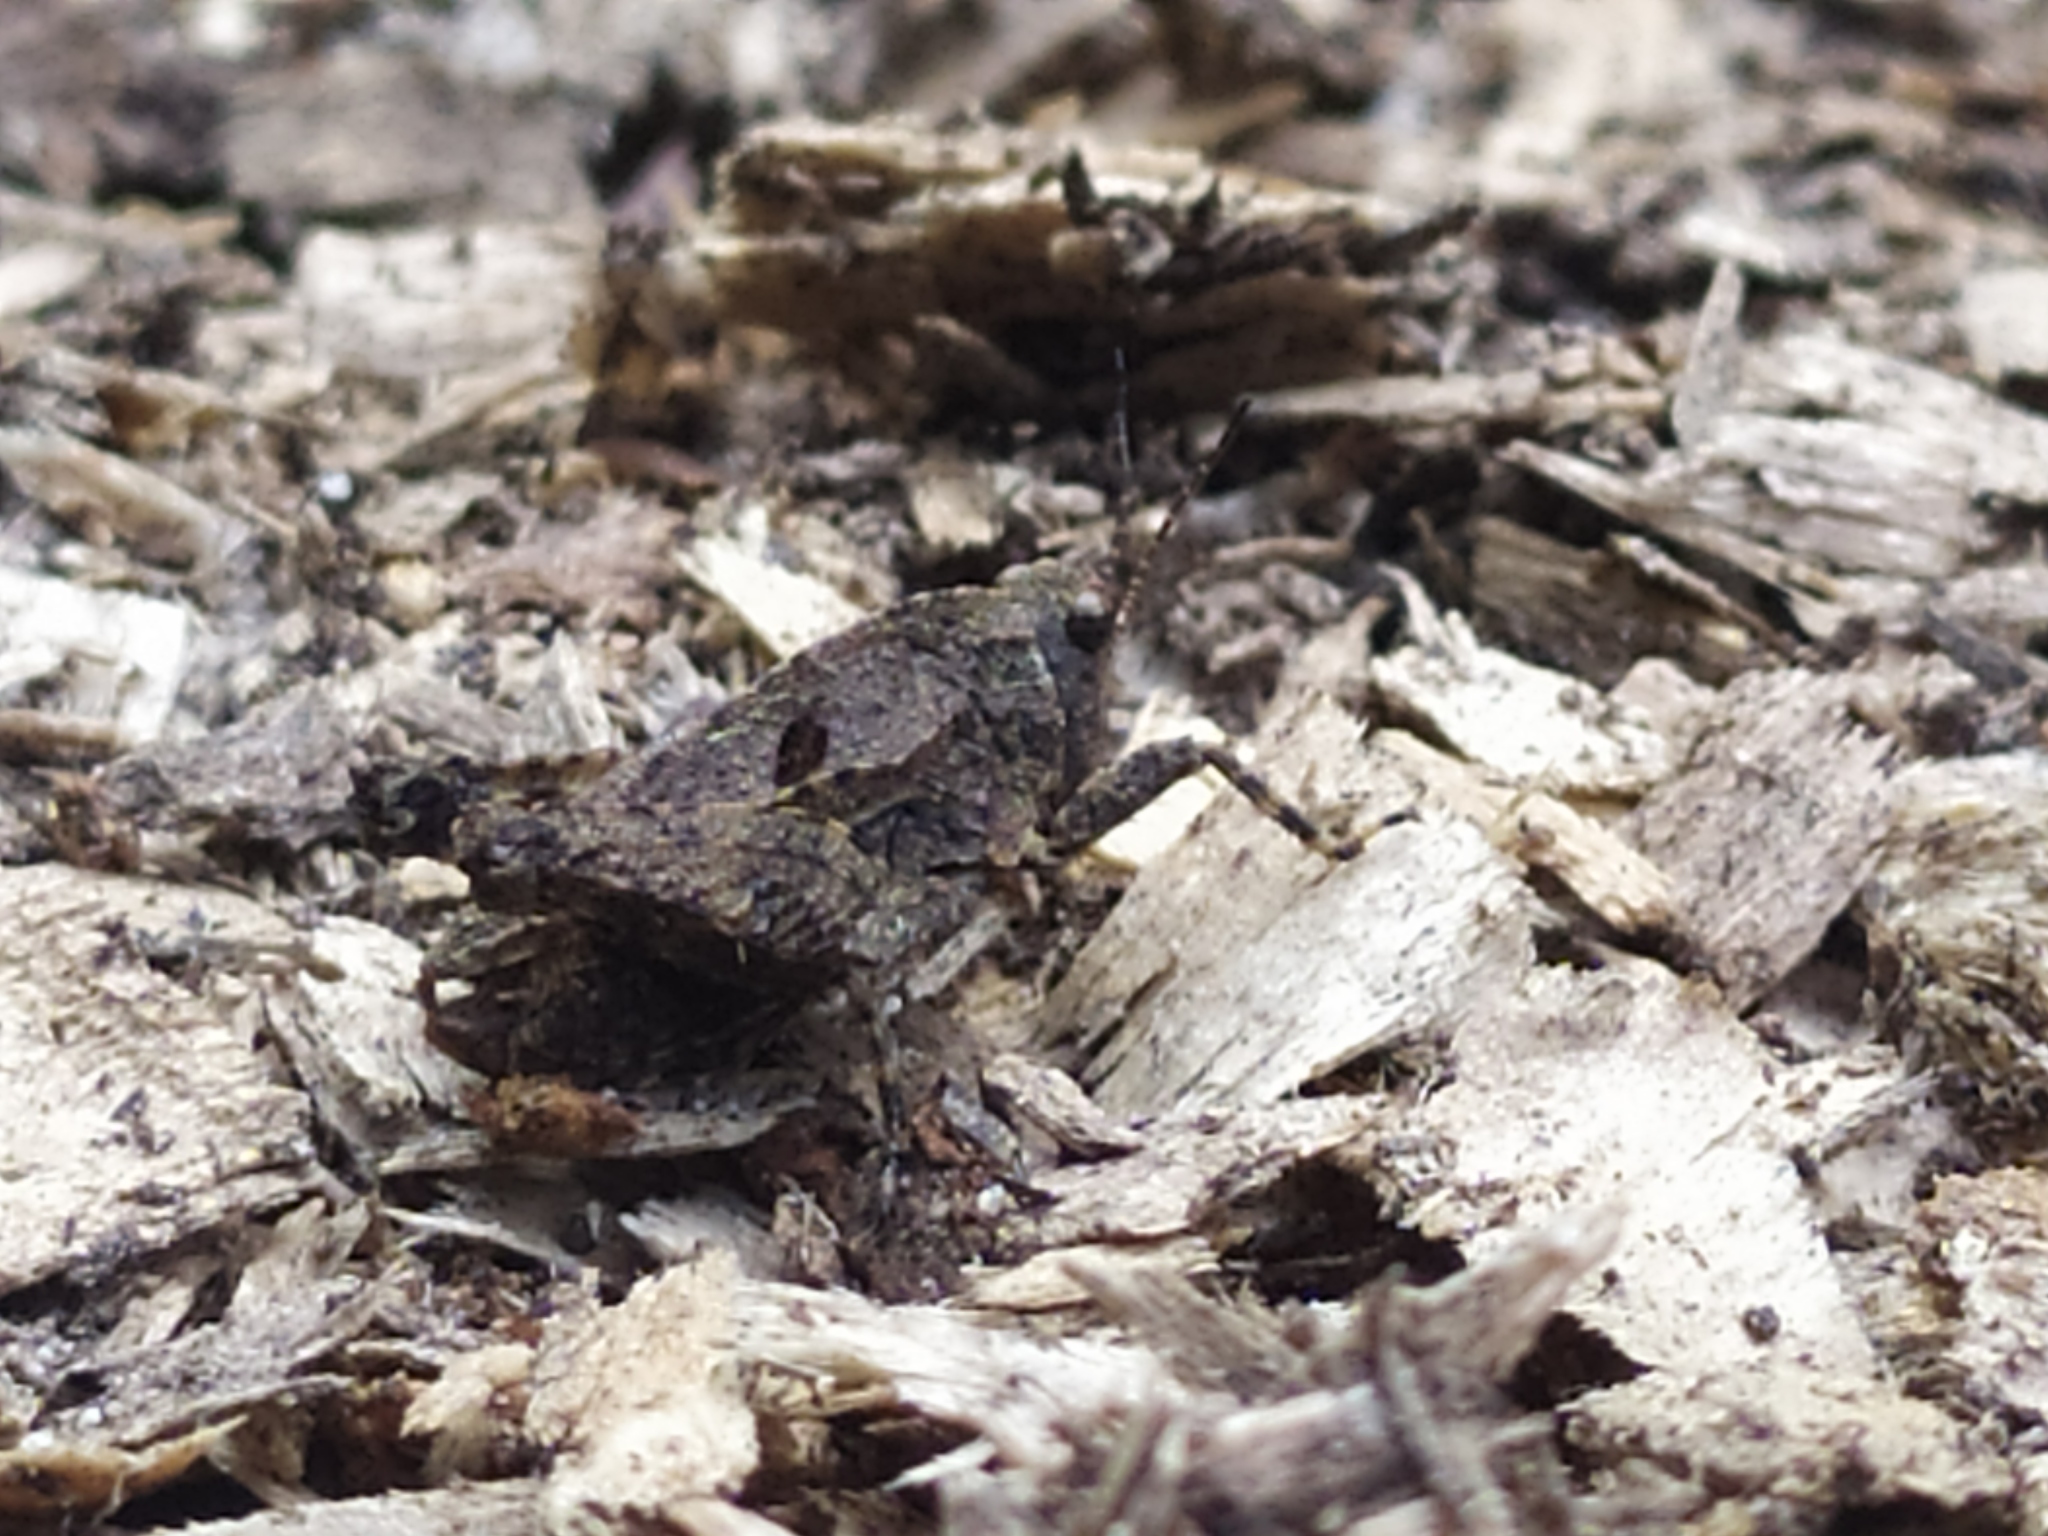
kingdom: Animalia
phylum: Arthropoda
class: Insecta
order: Orthoptera
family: Tetrigidae
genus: Tetrix
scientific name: Tetrix transsylvanica
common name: Transsylvanian wingless groundhopper
